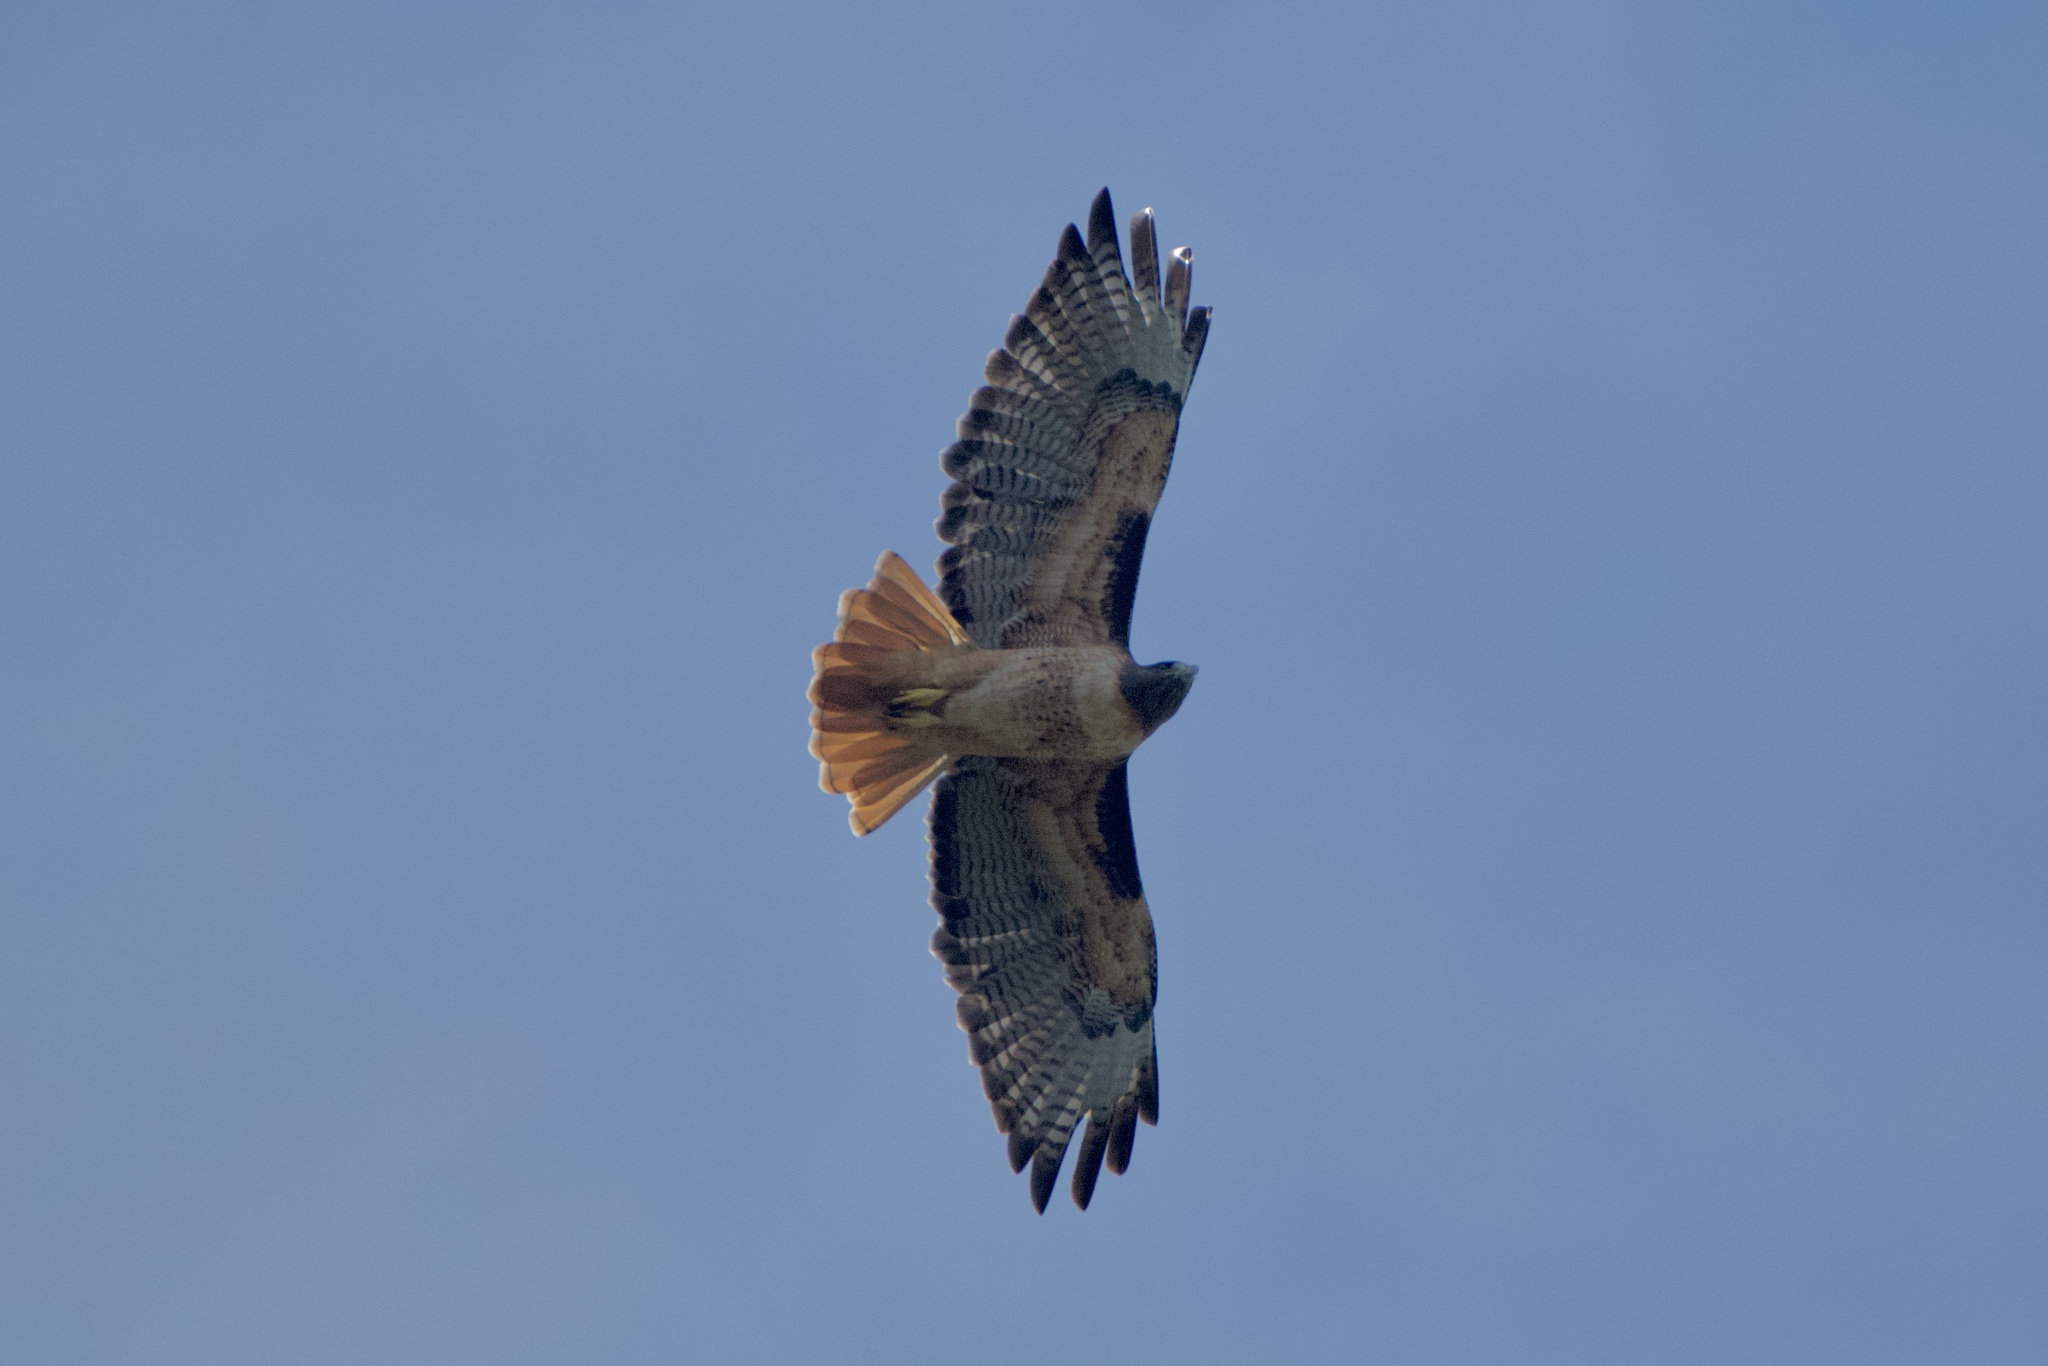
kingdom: Animalia
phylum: Chordata
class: Aves
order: Accipitriformes
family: Accipitridae
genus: Buteo
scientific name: Buteo jamaicensis
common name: Red-tailed hawk
